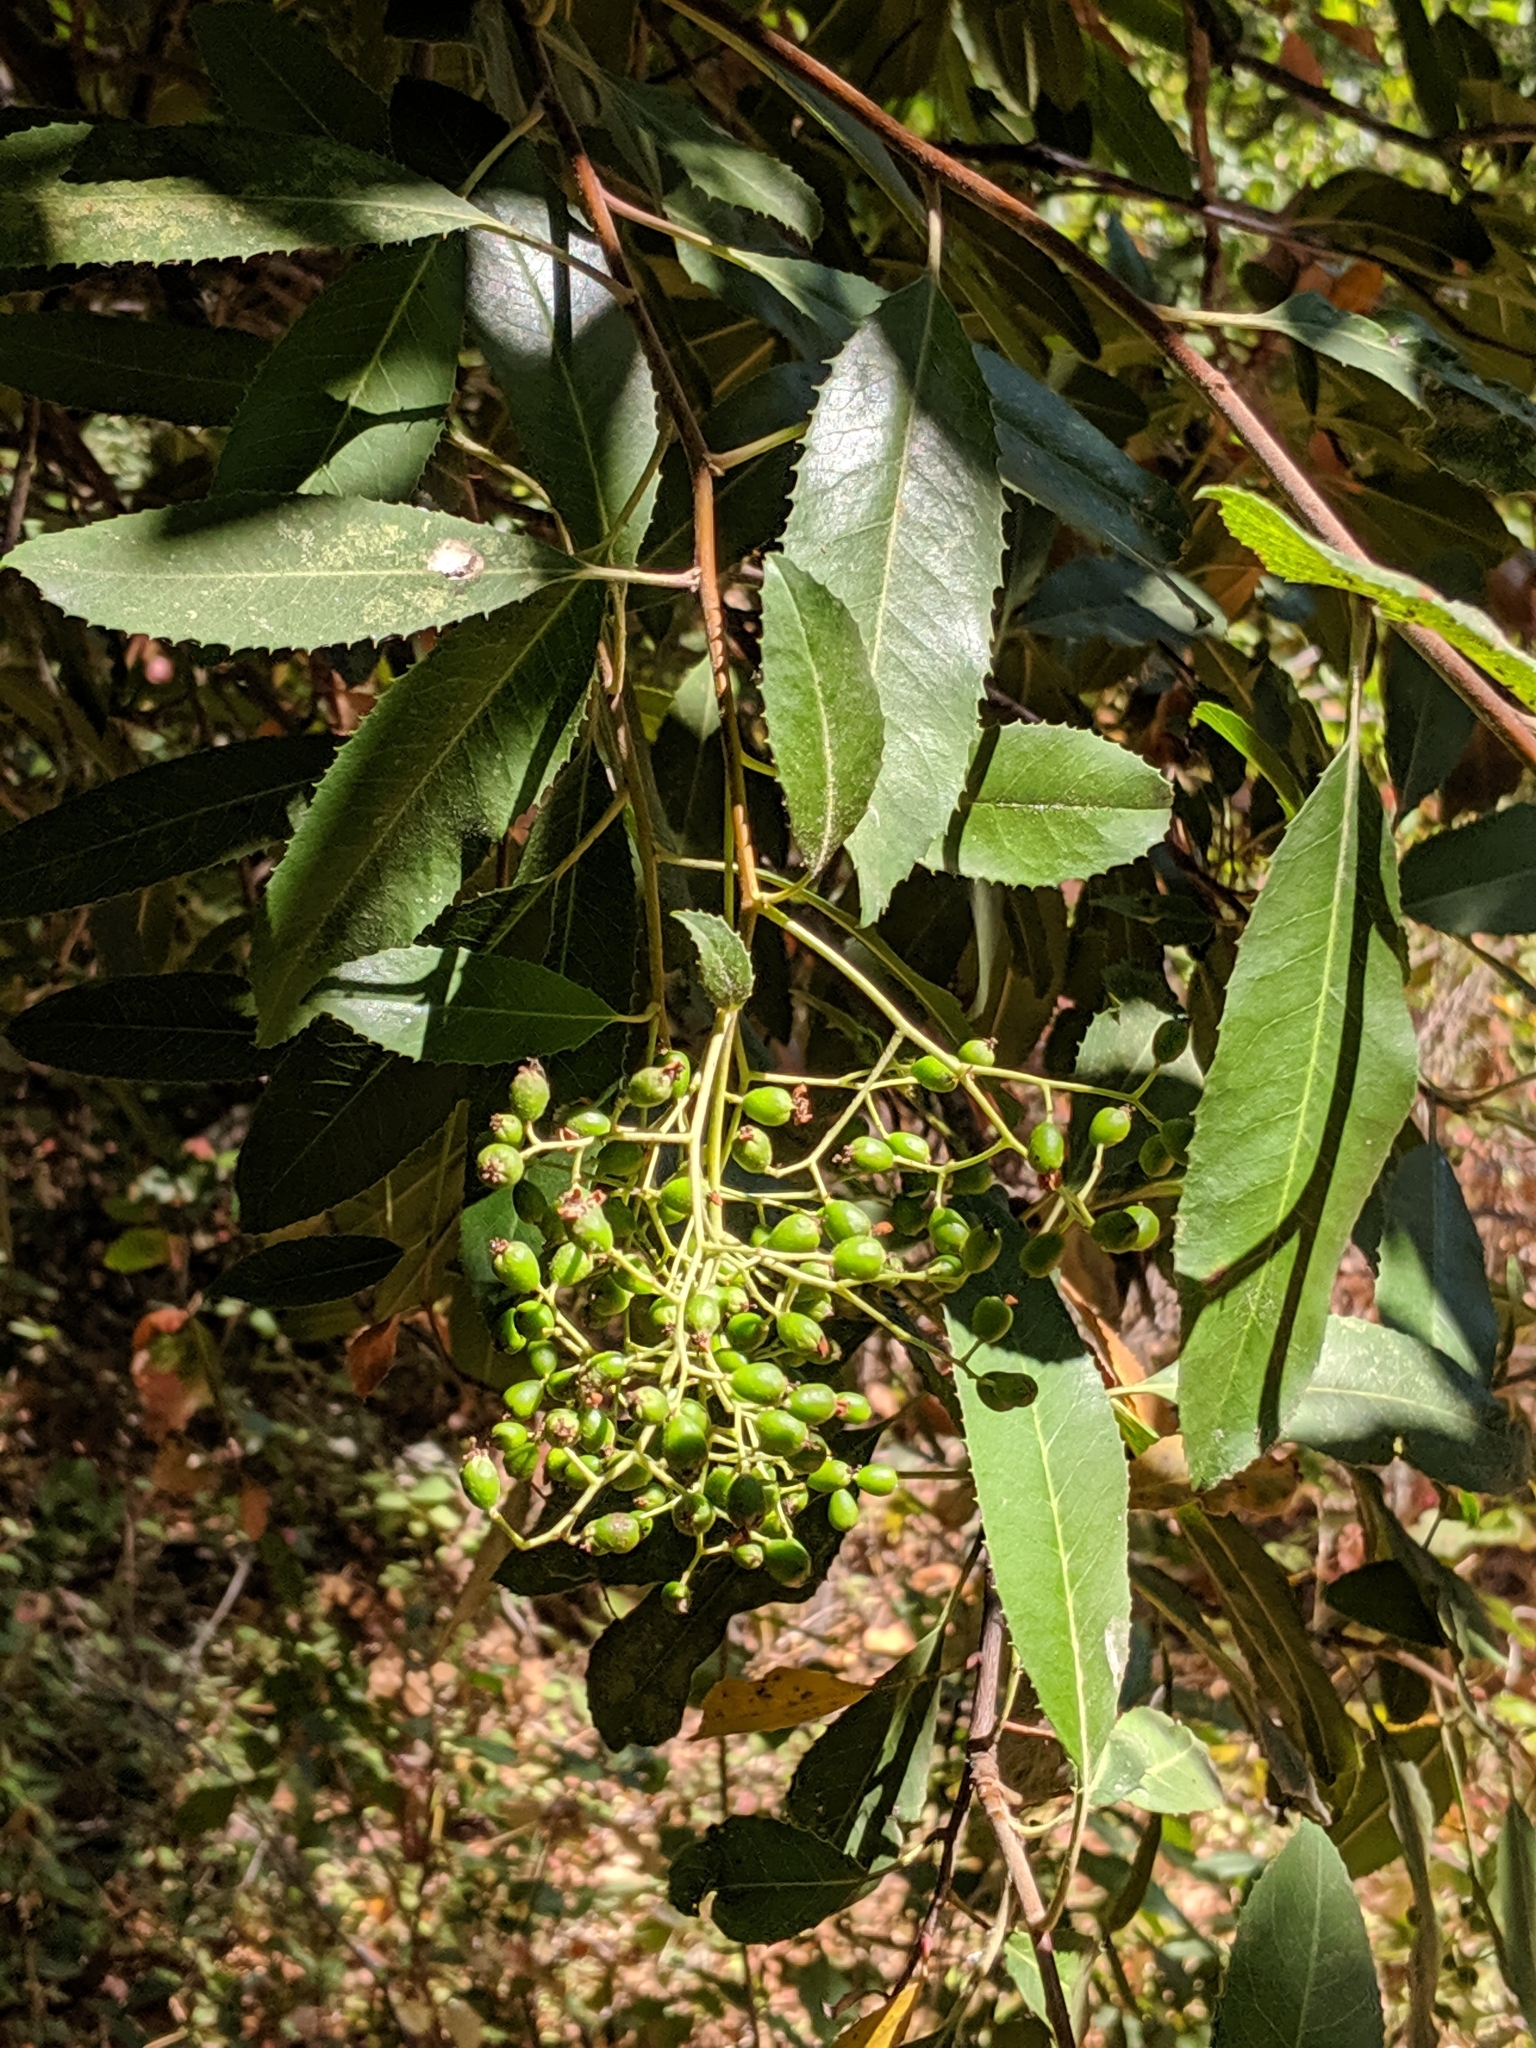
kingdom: Plantae
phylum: Tracheophyta
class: Magnoliopsida
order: Rosales
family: Rosaceae
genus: Heteromeles
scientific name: Heteromeles arbutifolia
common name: California-holly
